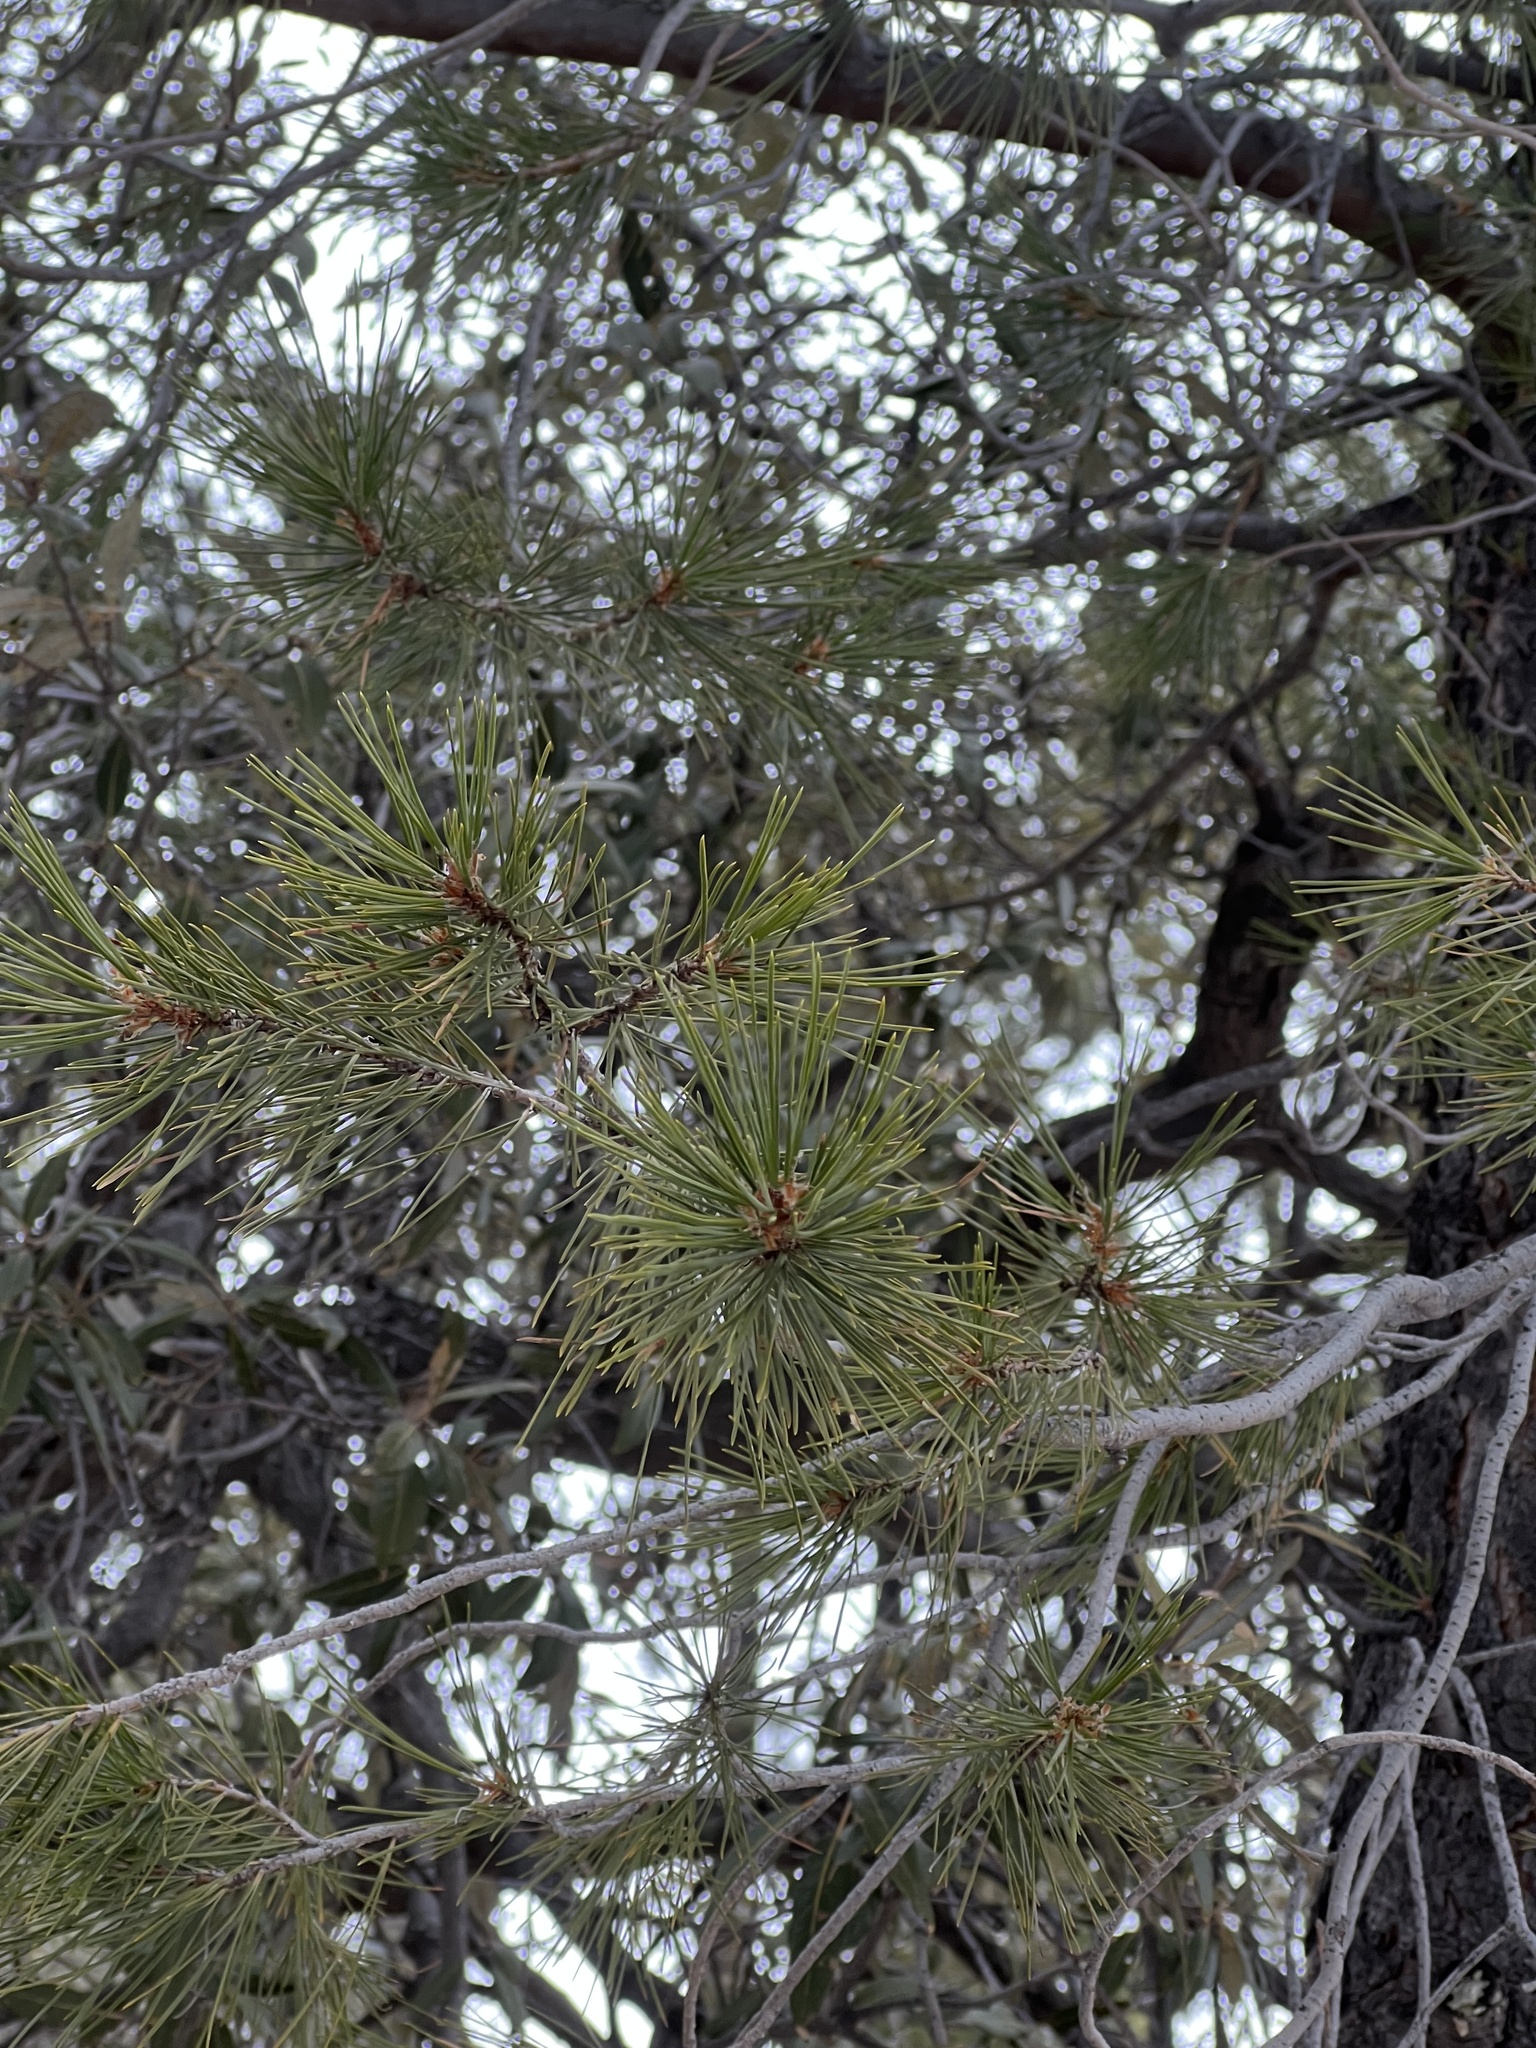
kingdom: Plantae
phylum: Tracheophyta
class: Pinopsida
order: Pinales
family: Pinaceae
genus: Pinus
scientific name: Pinus leiophylla
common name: Chihuahua pine
